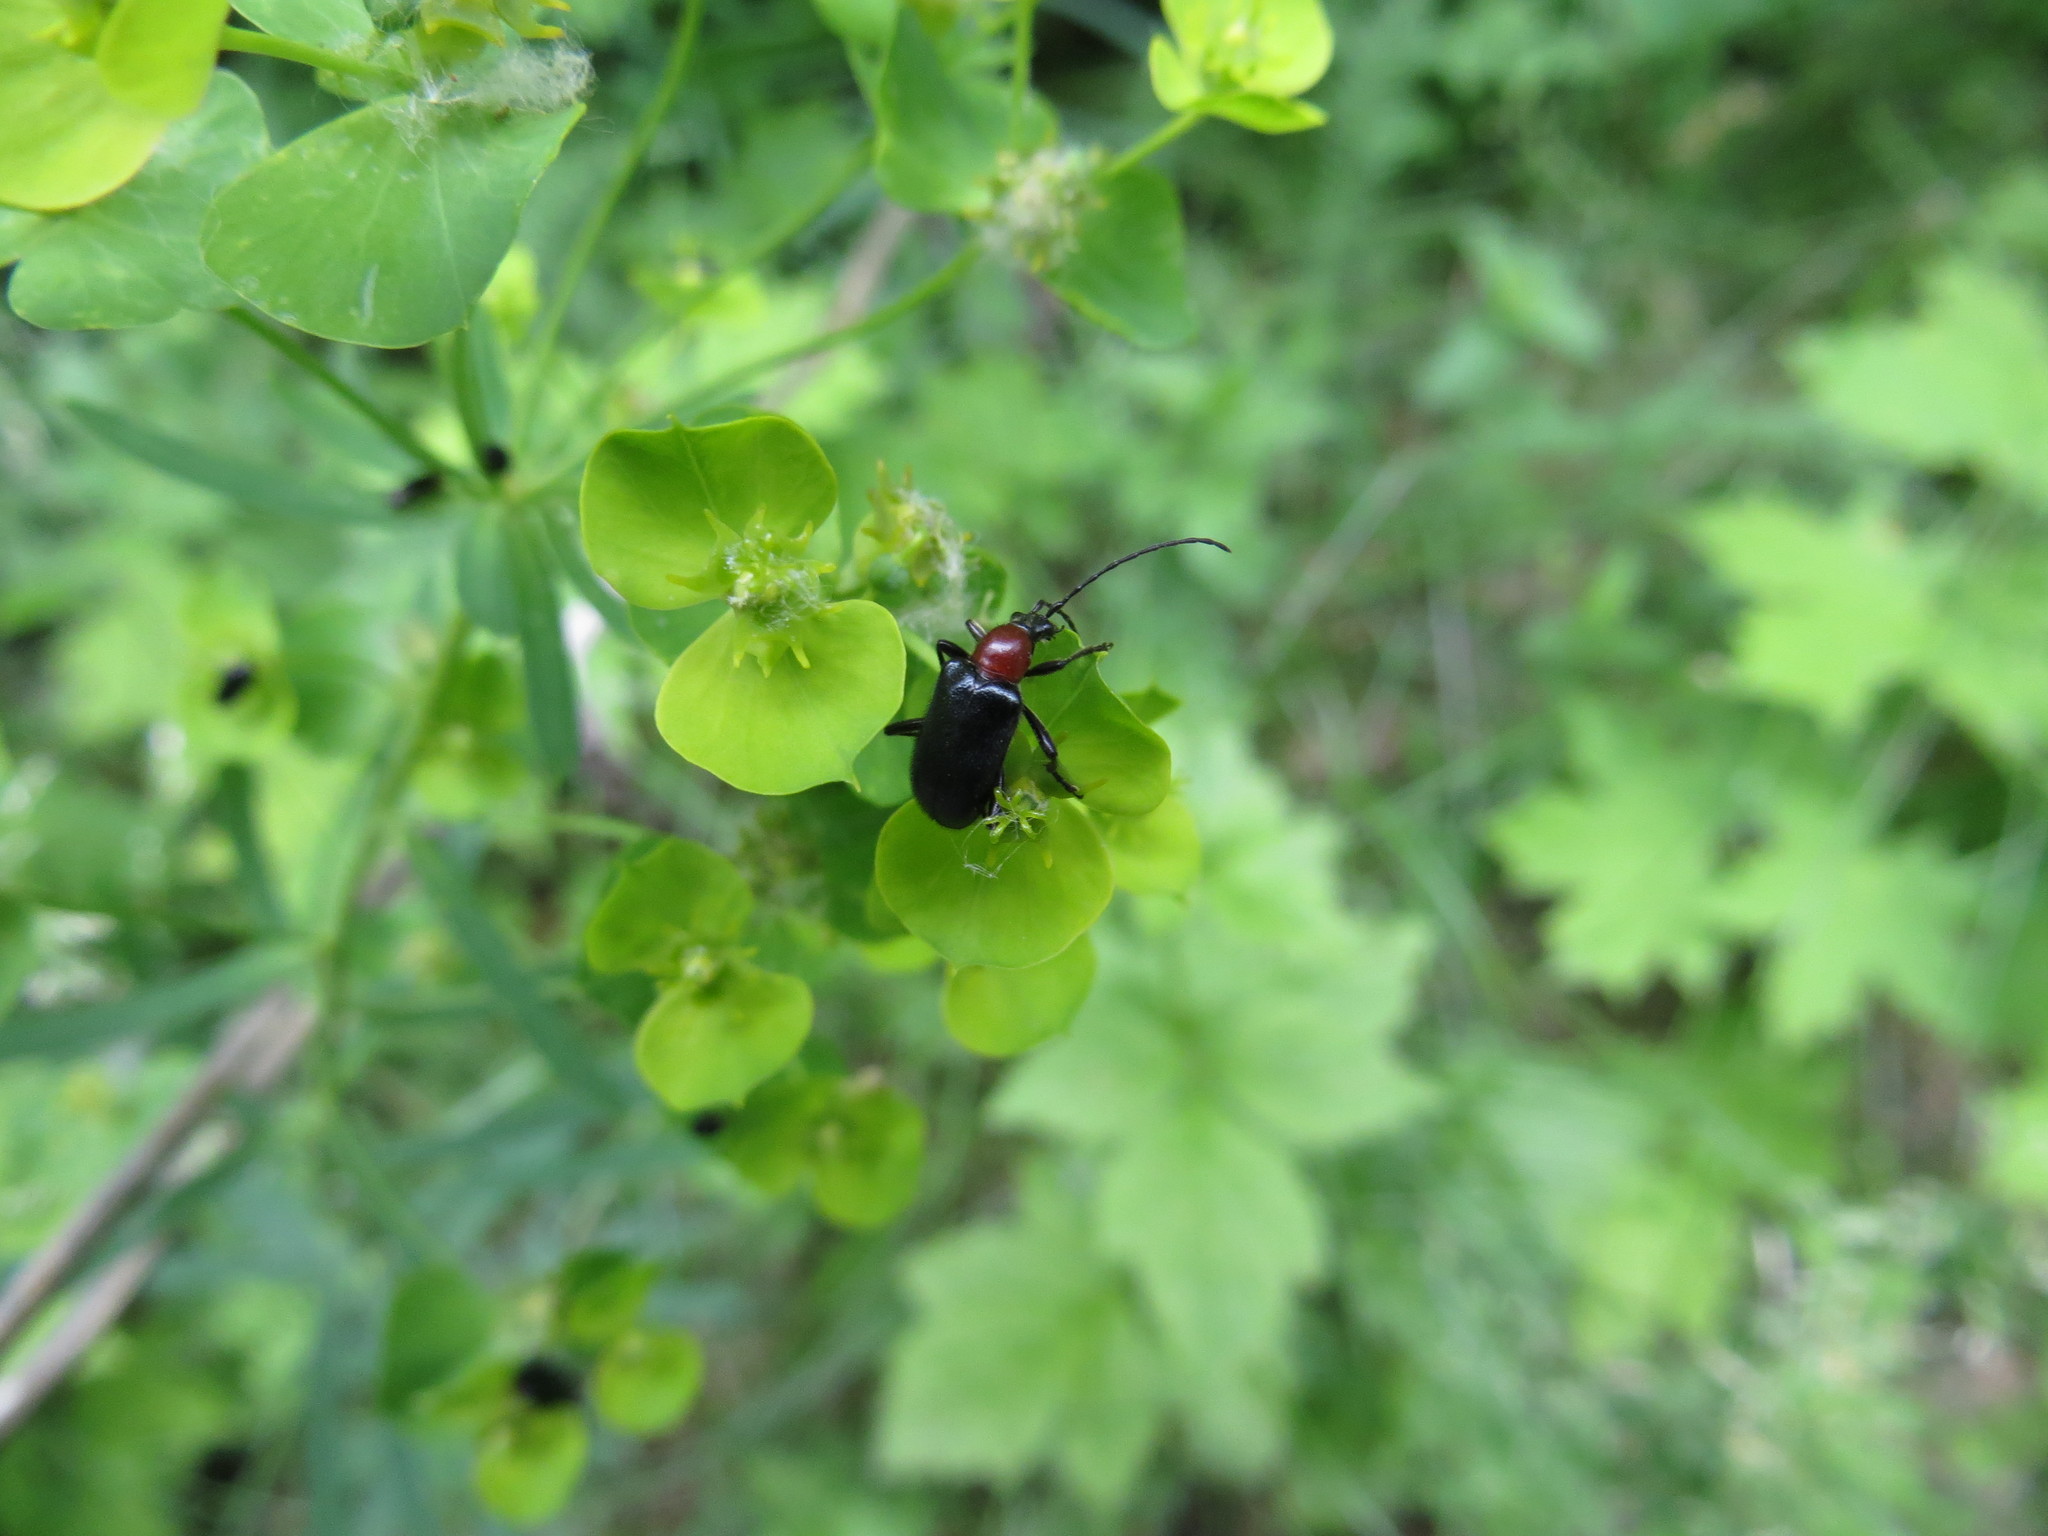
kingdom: Animalia
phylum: Arthropoda
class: Insecta
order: Coleoptera
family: Cerambycidae
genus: Dinoptera
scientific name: Dinoptera collaris
